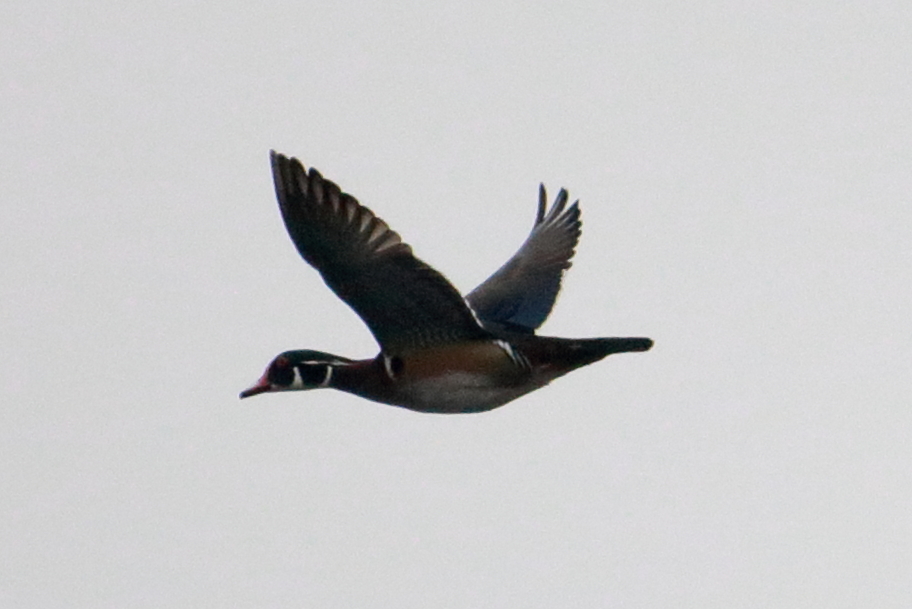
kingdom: Animalia
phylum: Chordata
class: Aves
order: Anseriformes
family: Anatidae
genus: Aix
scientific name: Aix sponsa
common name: Wood duck
